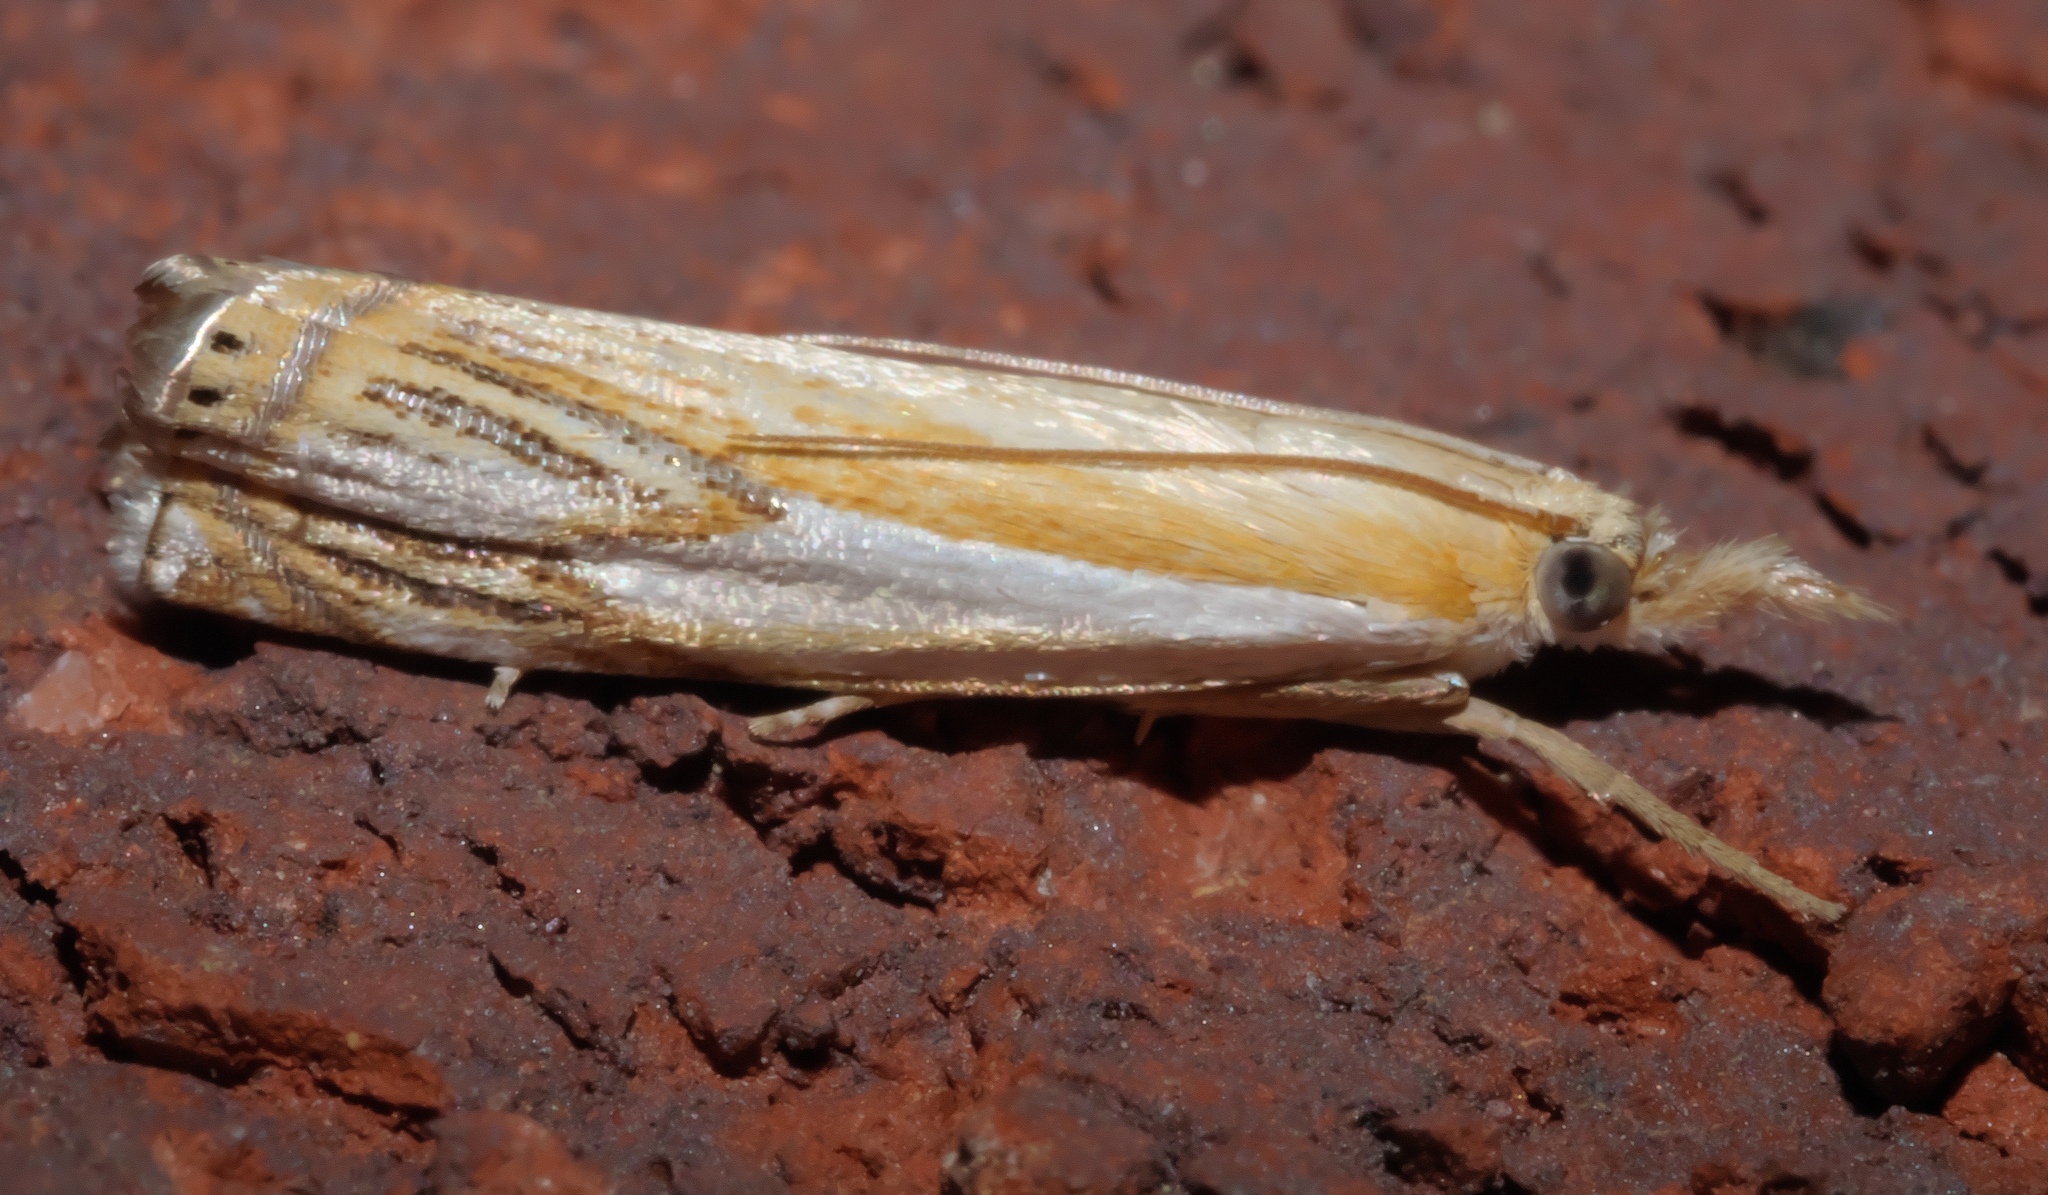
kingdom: Animalia
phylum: Arthropoda
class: Insecta
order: Lepidoptera
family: Crambidae
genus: Crambus
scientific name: Crambus agitatellus
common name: Double-banded grass-veneer
